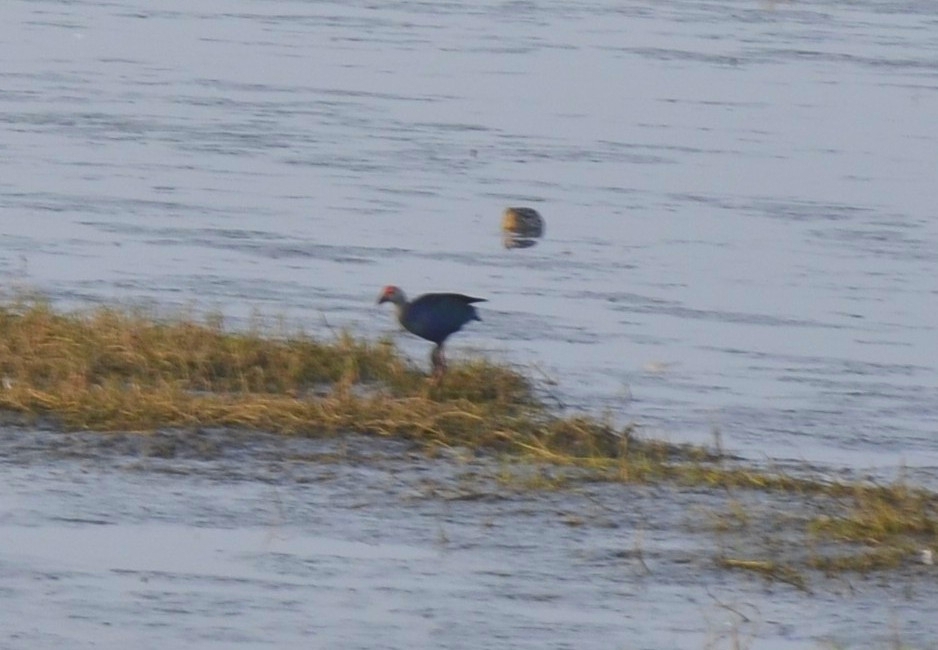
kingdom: Animalia
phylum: Chordata
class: Aves
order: Gruiformes
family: Rallidae
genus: Porphyrio
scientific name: Porphyrio porphyrio
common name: Purple swamphen
